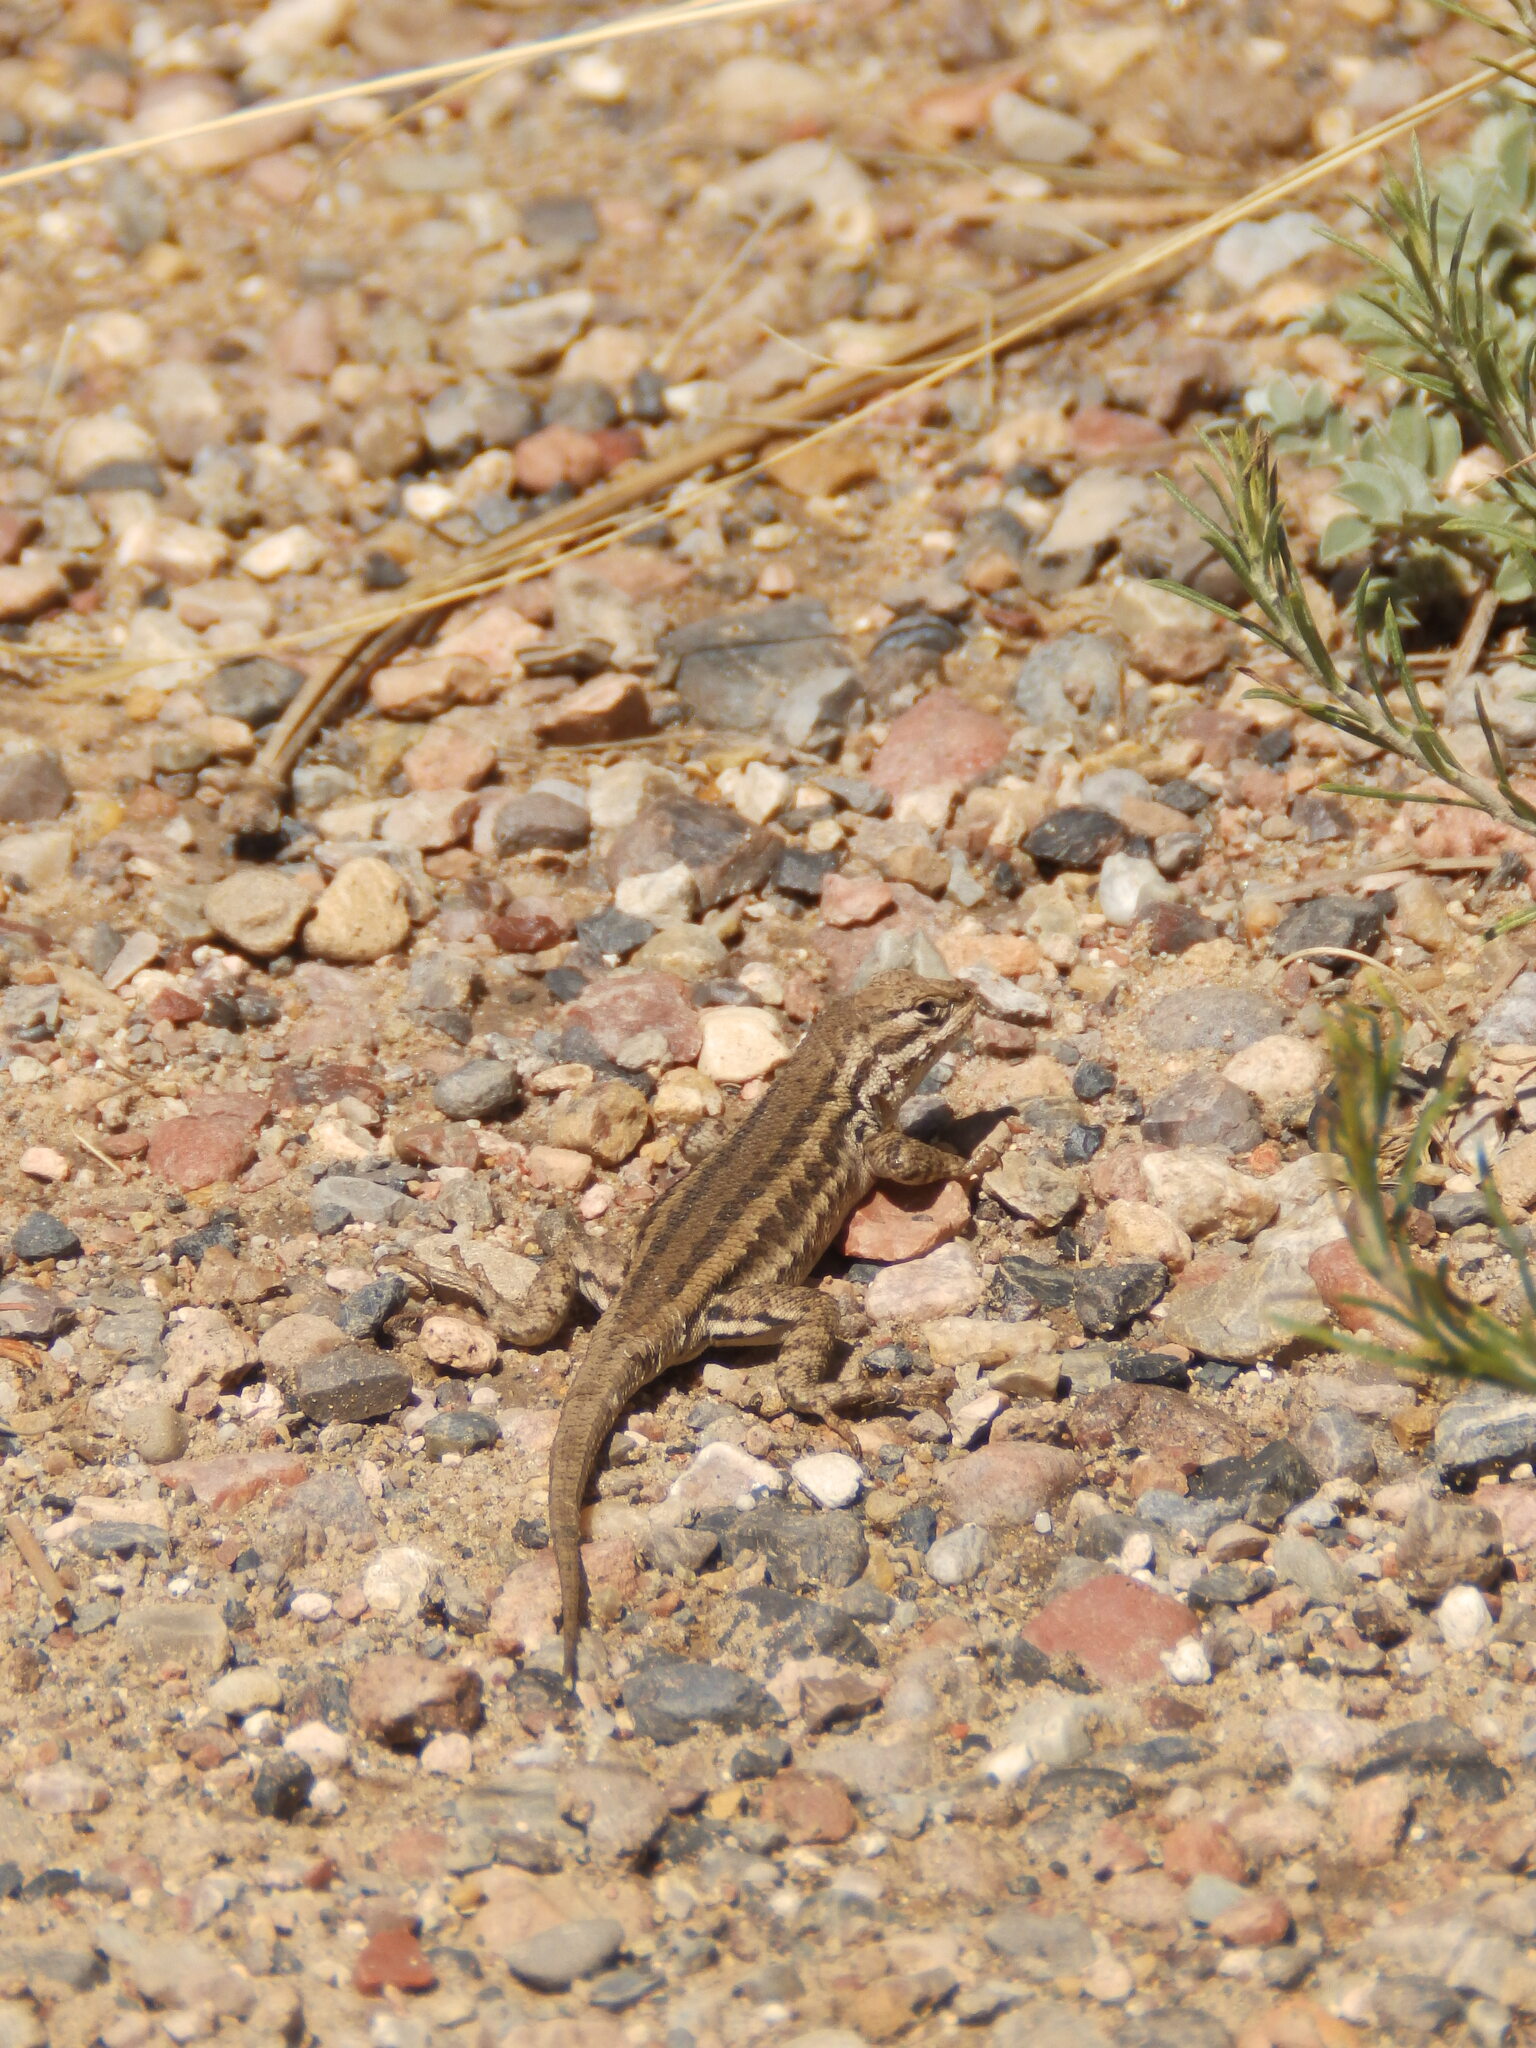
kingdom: Animalia
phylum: Chordata
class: Squamata
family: Phrynosomatidae
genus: Sceloporus
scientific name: Sceloporus graciosus
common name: Sagebrush lizard
